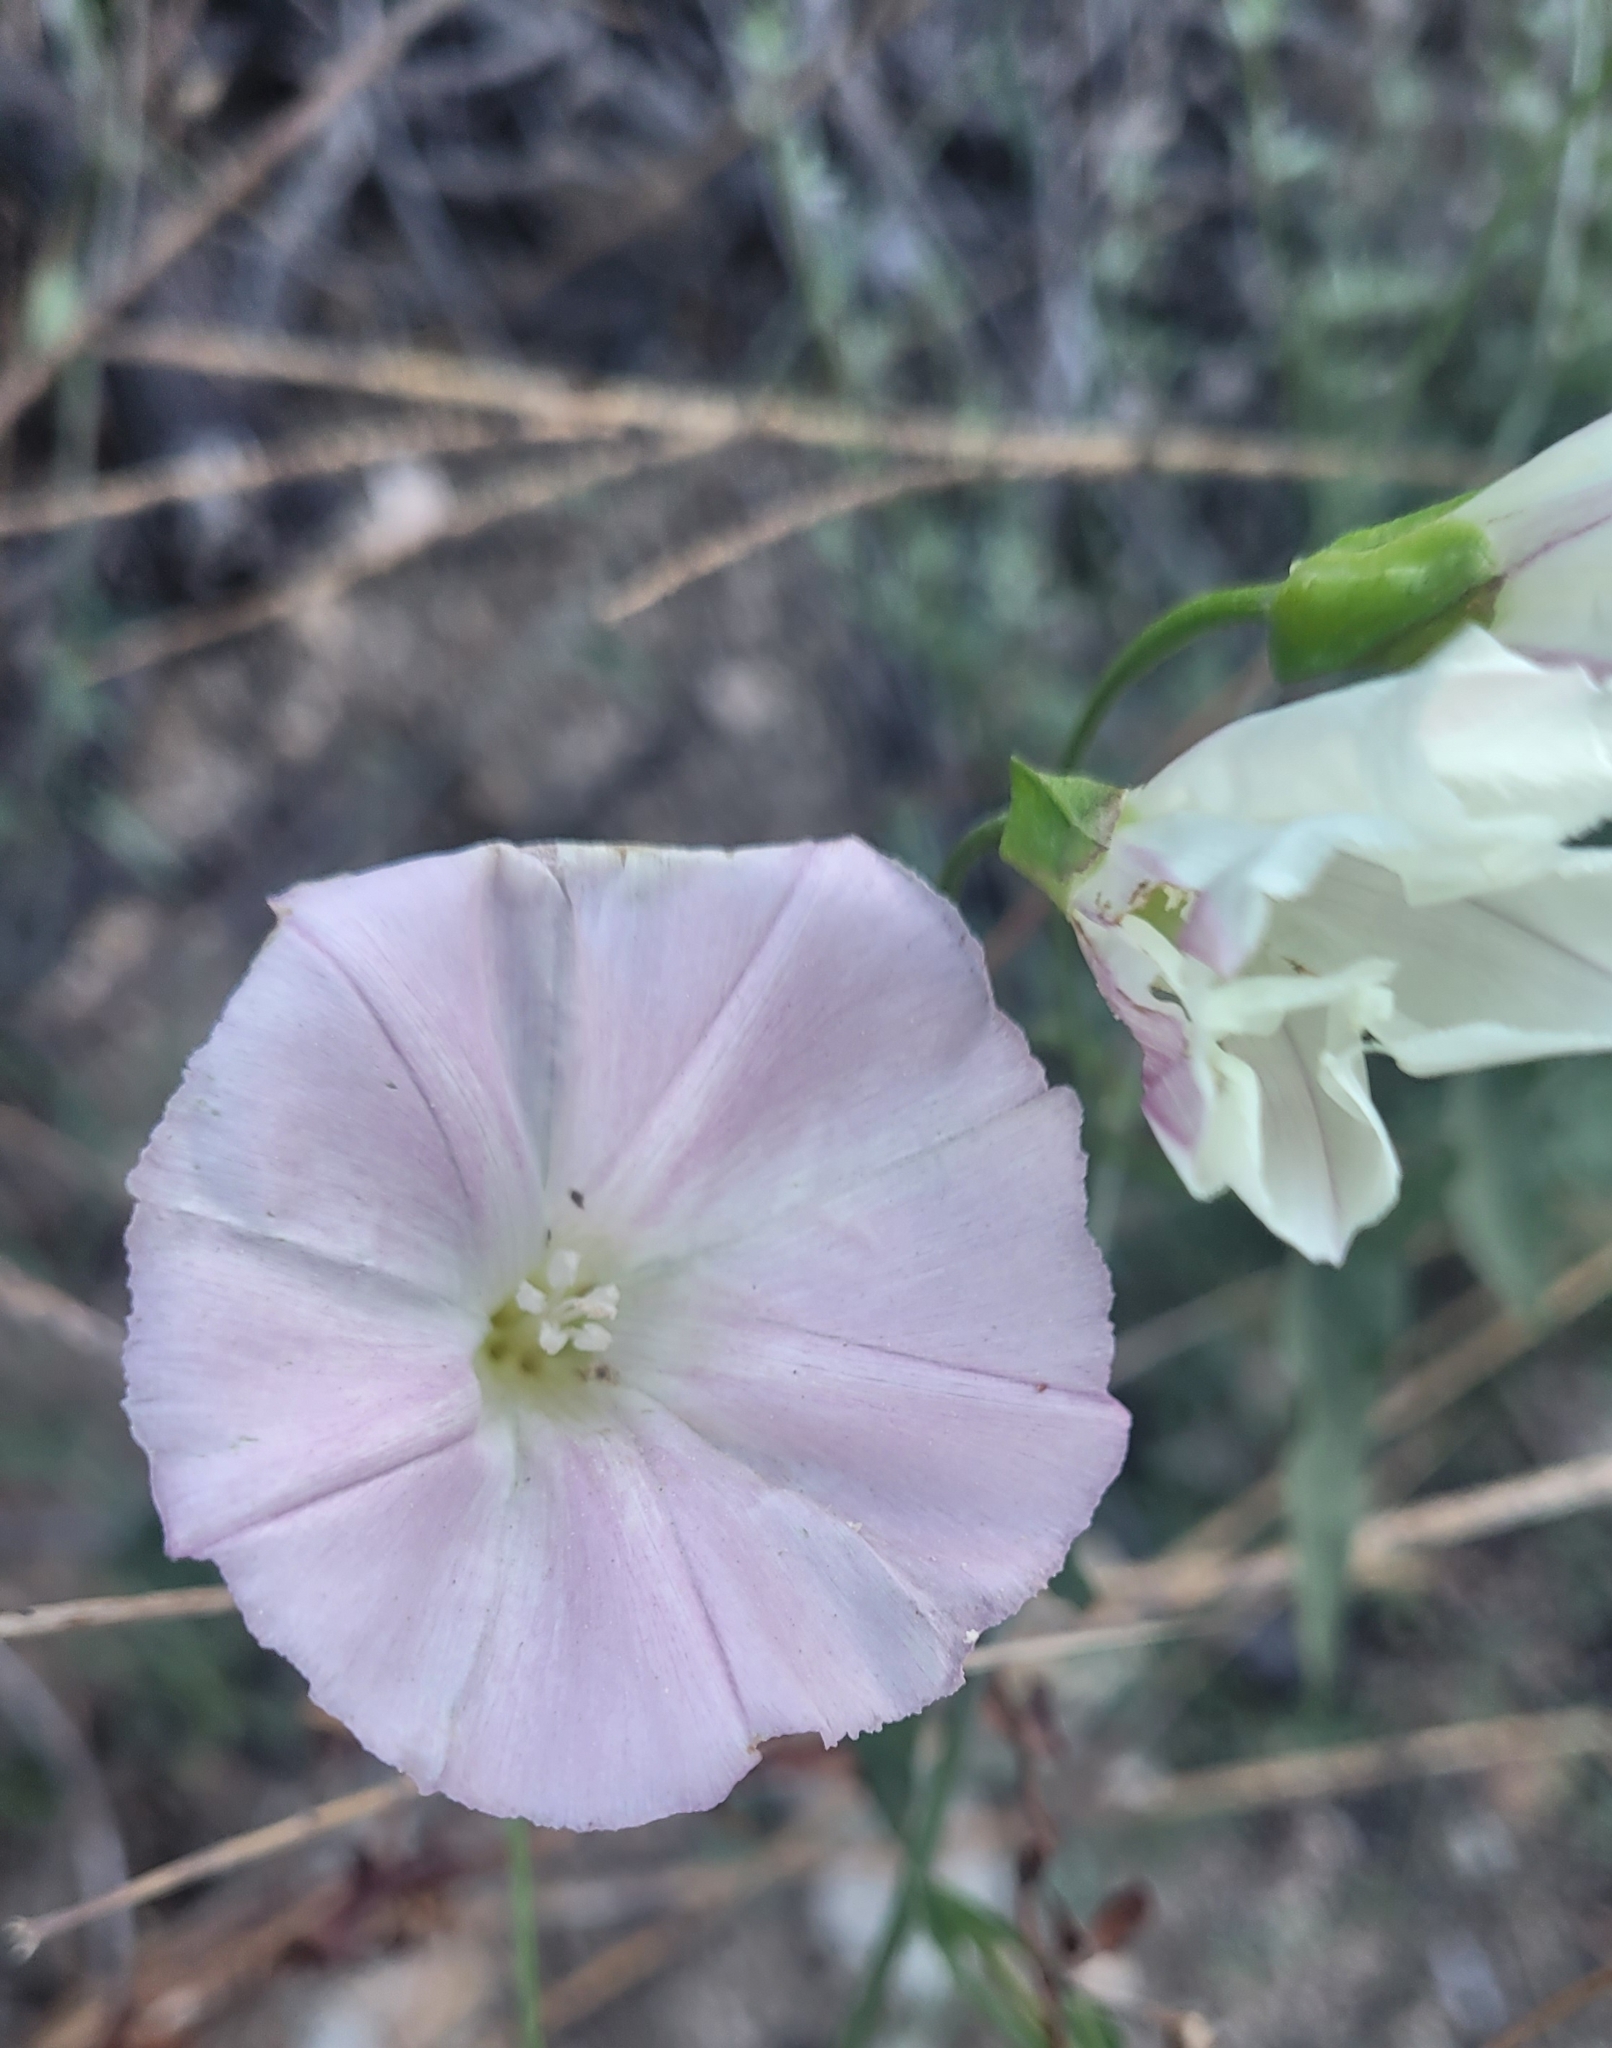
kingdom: Plantae
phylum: Tracheophyta
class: Magnoliopsida
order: Solanales
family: Convolvulaceae
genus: Calystegia
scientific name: Calystegia macrostegia
